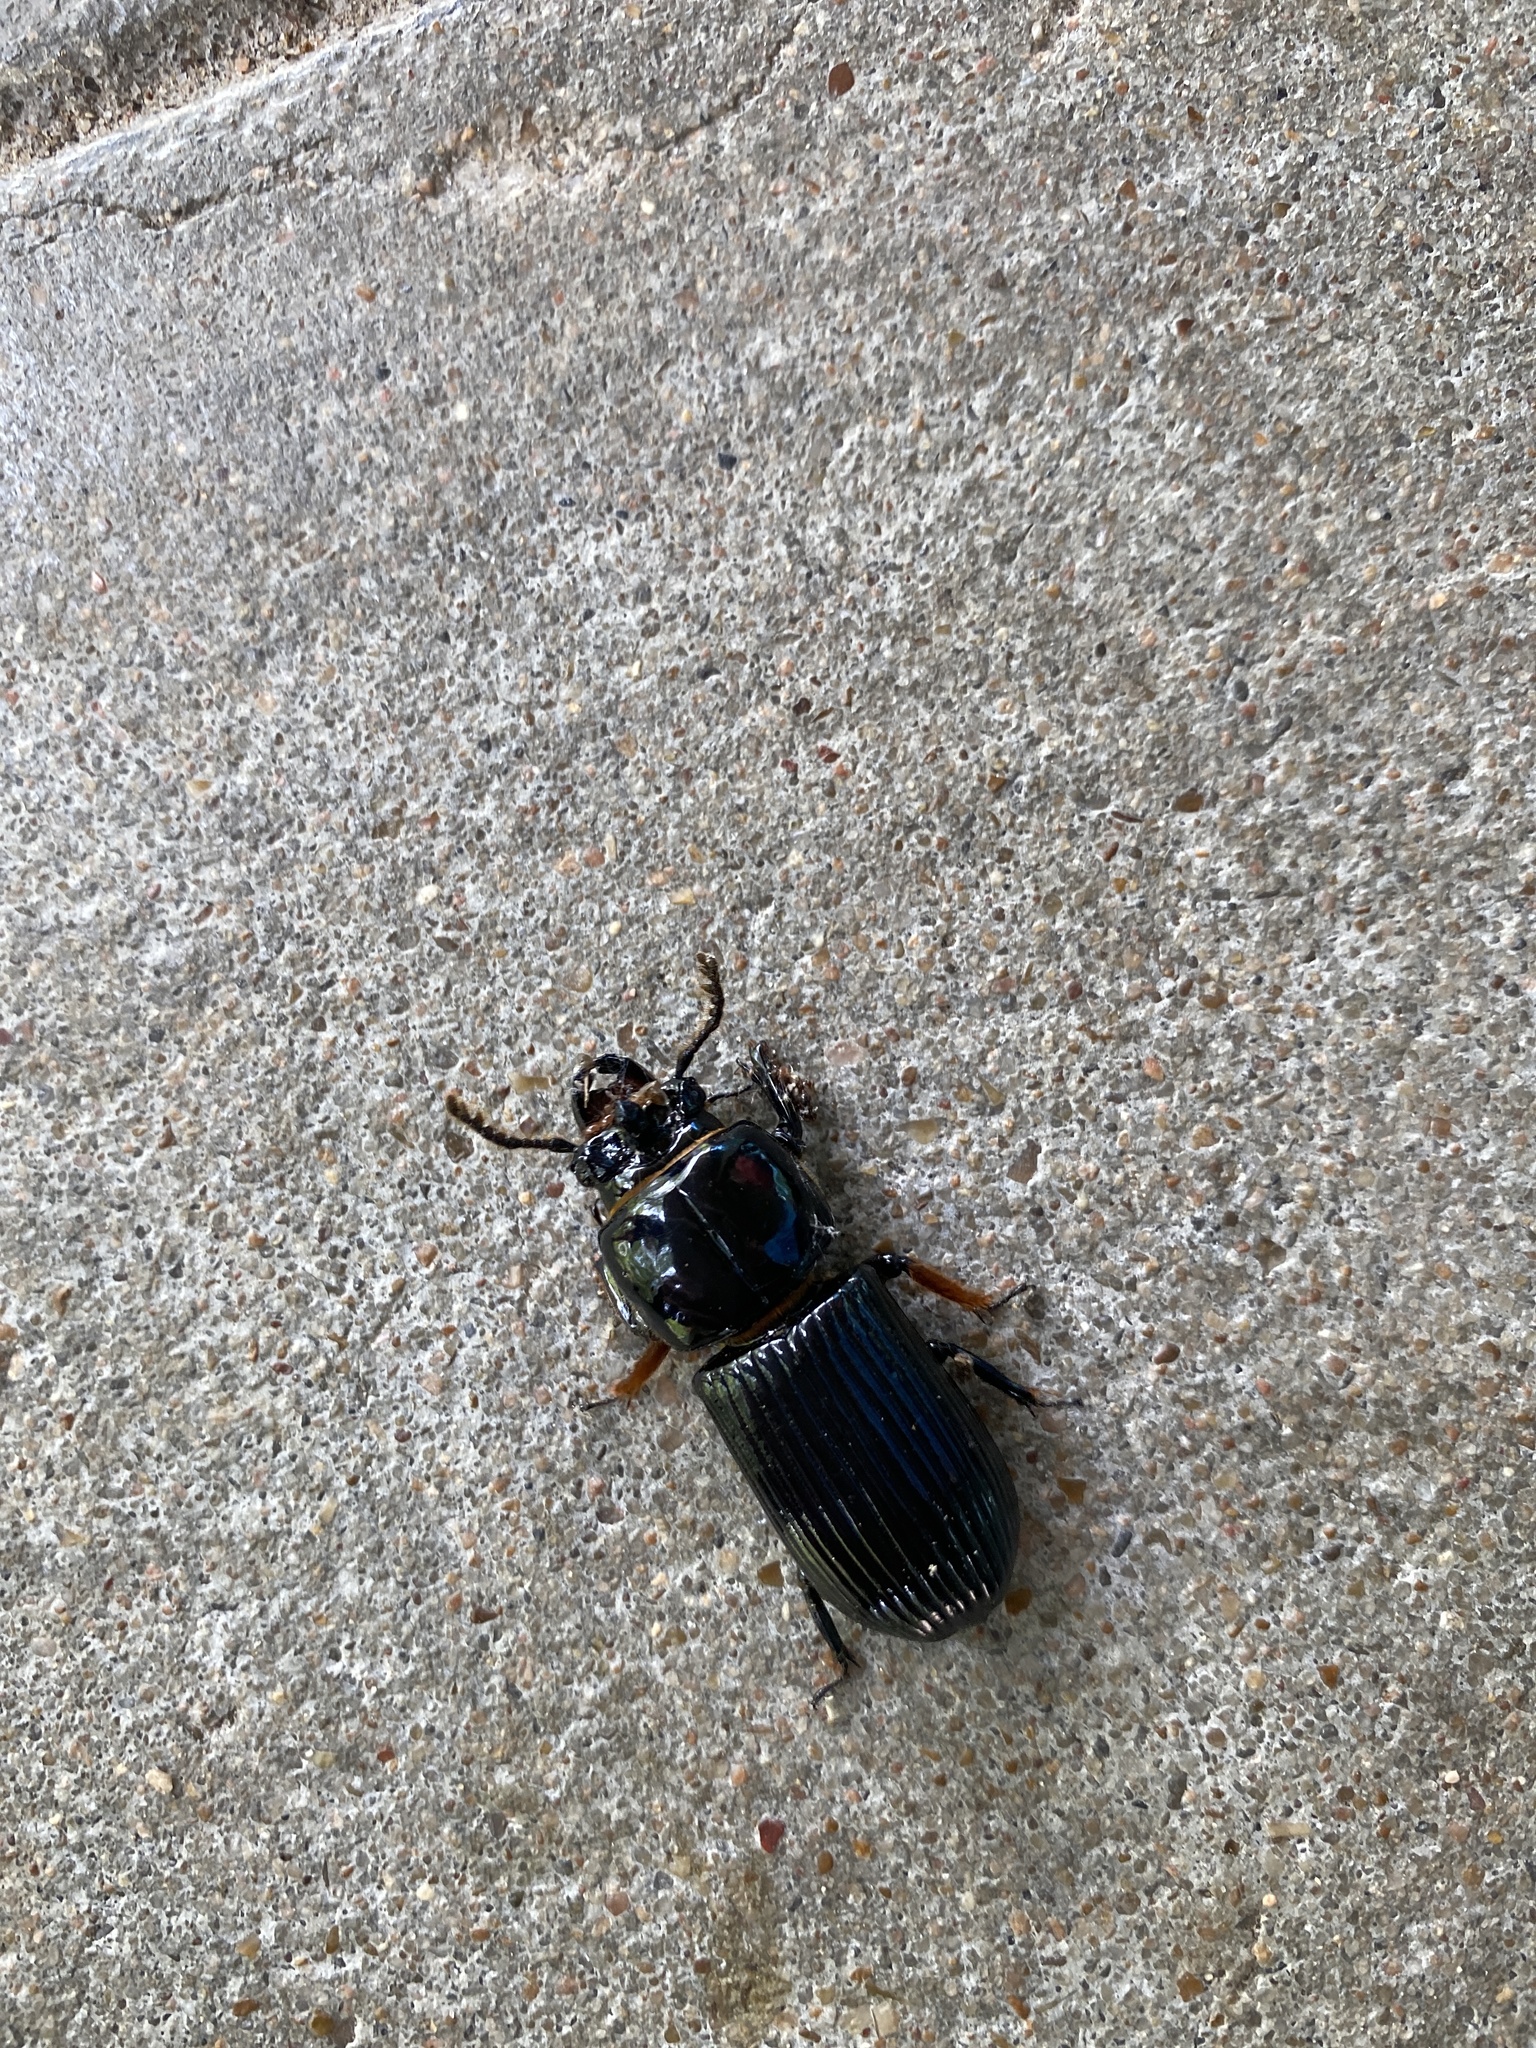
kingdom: Animalia
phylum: Arthropoda
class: Insecta
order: Coleoptera
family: Passalidae
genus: Odontotaenius
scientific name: Odontotaenius disjunctus
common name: Patent leather beetle
